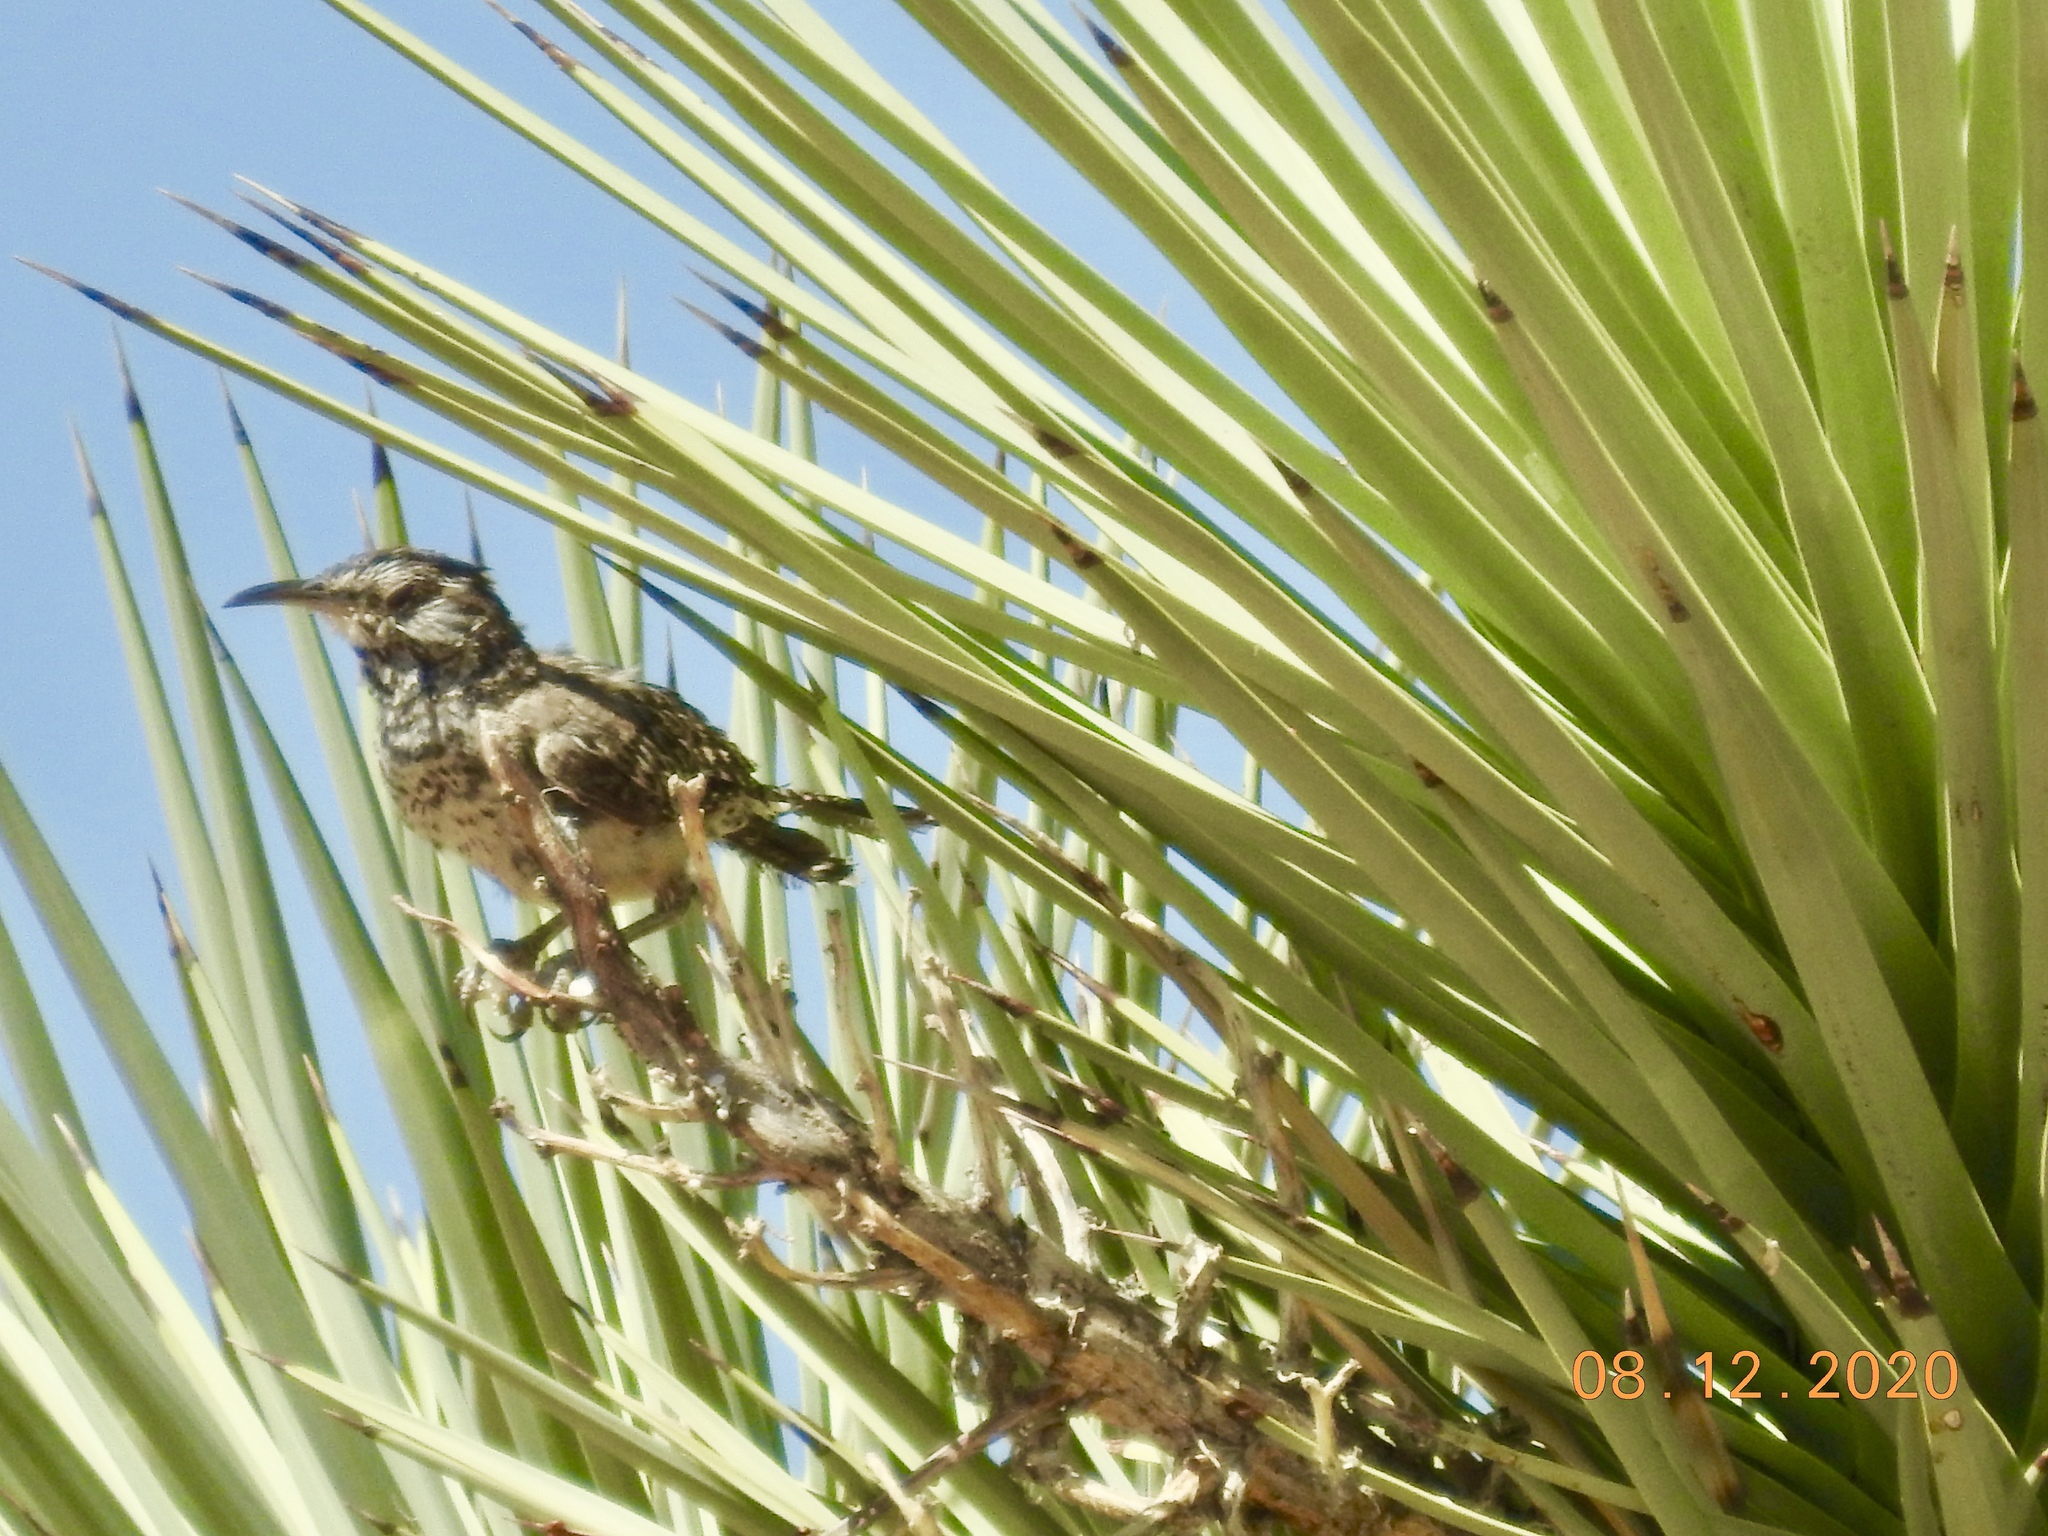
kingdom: Animalia
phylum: Chordata
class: Aves
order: Passeriformes
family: Troglodytidae
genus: Campylorhynchus
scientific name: Campylorhynchus brunneicapillus
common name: Cactus wren
